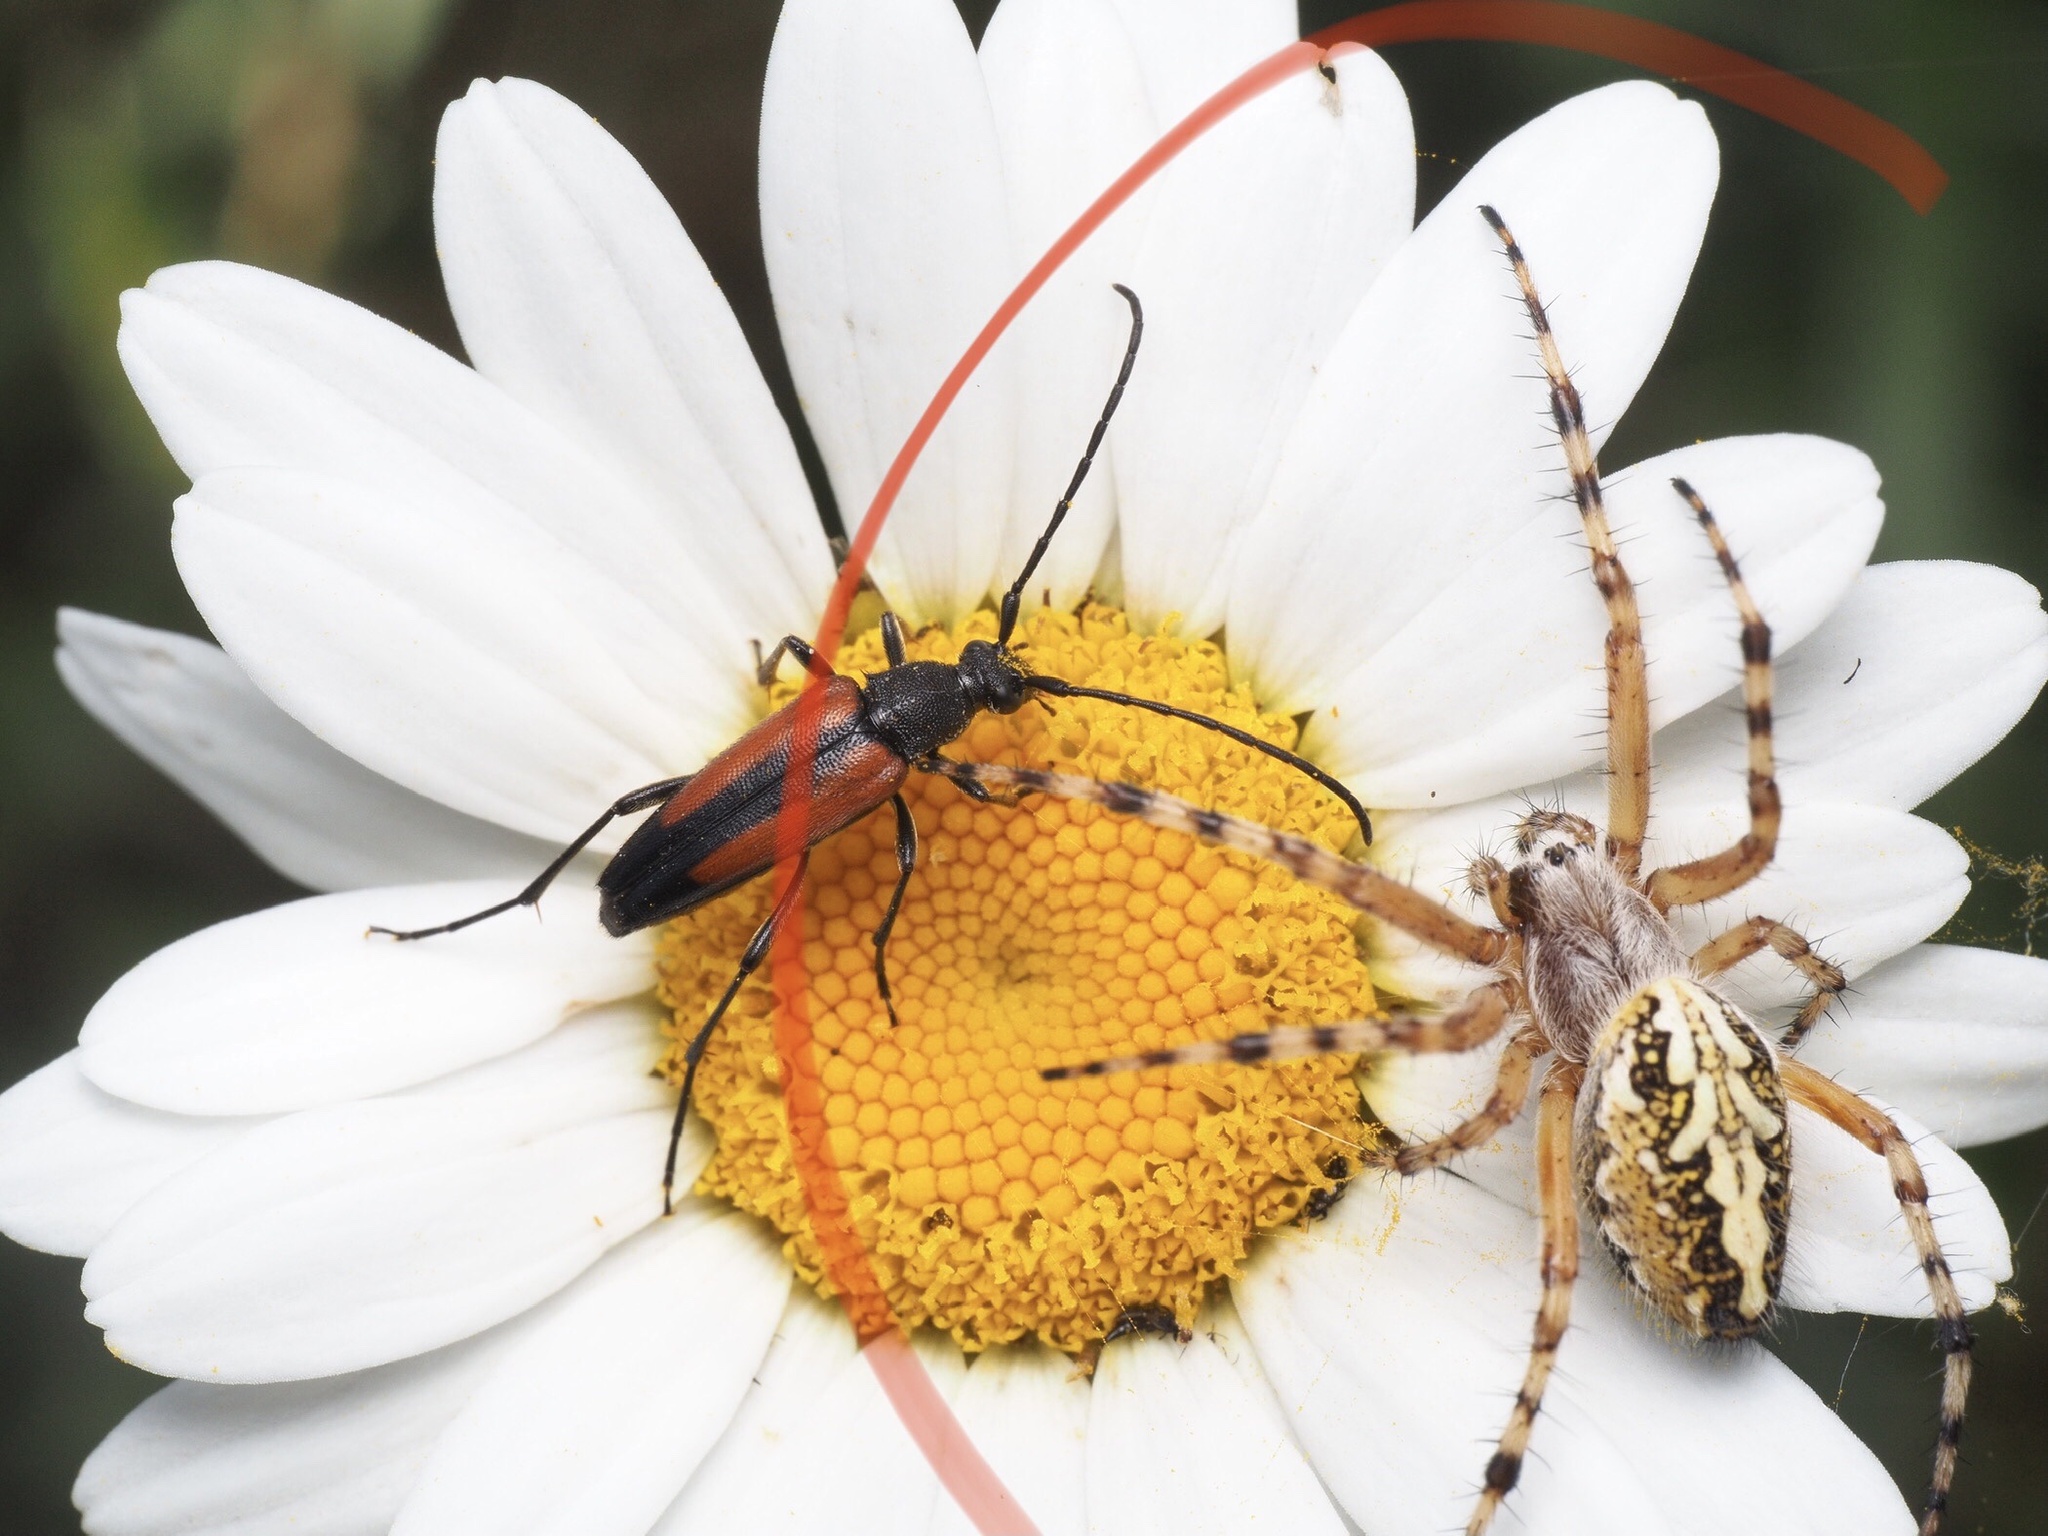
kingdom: Animalia
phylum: Arthropoda
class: Arachnida
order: Araneae
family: Araneidae
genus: Aculepeira
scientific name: Aculepeira ceropegia
